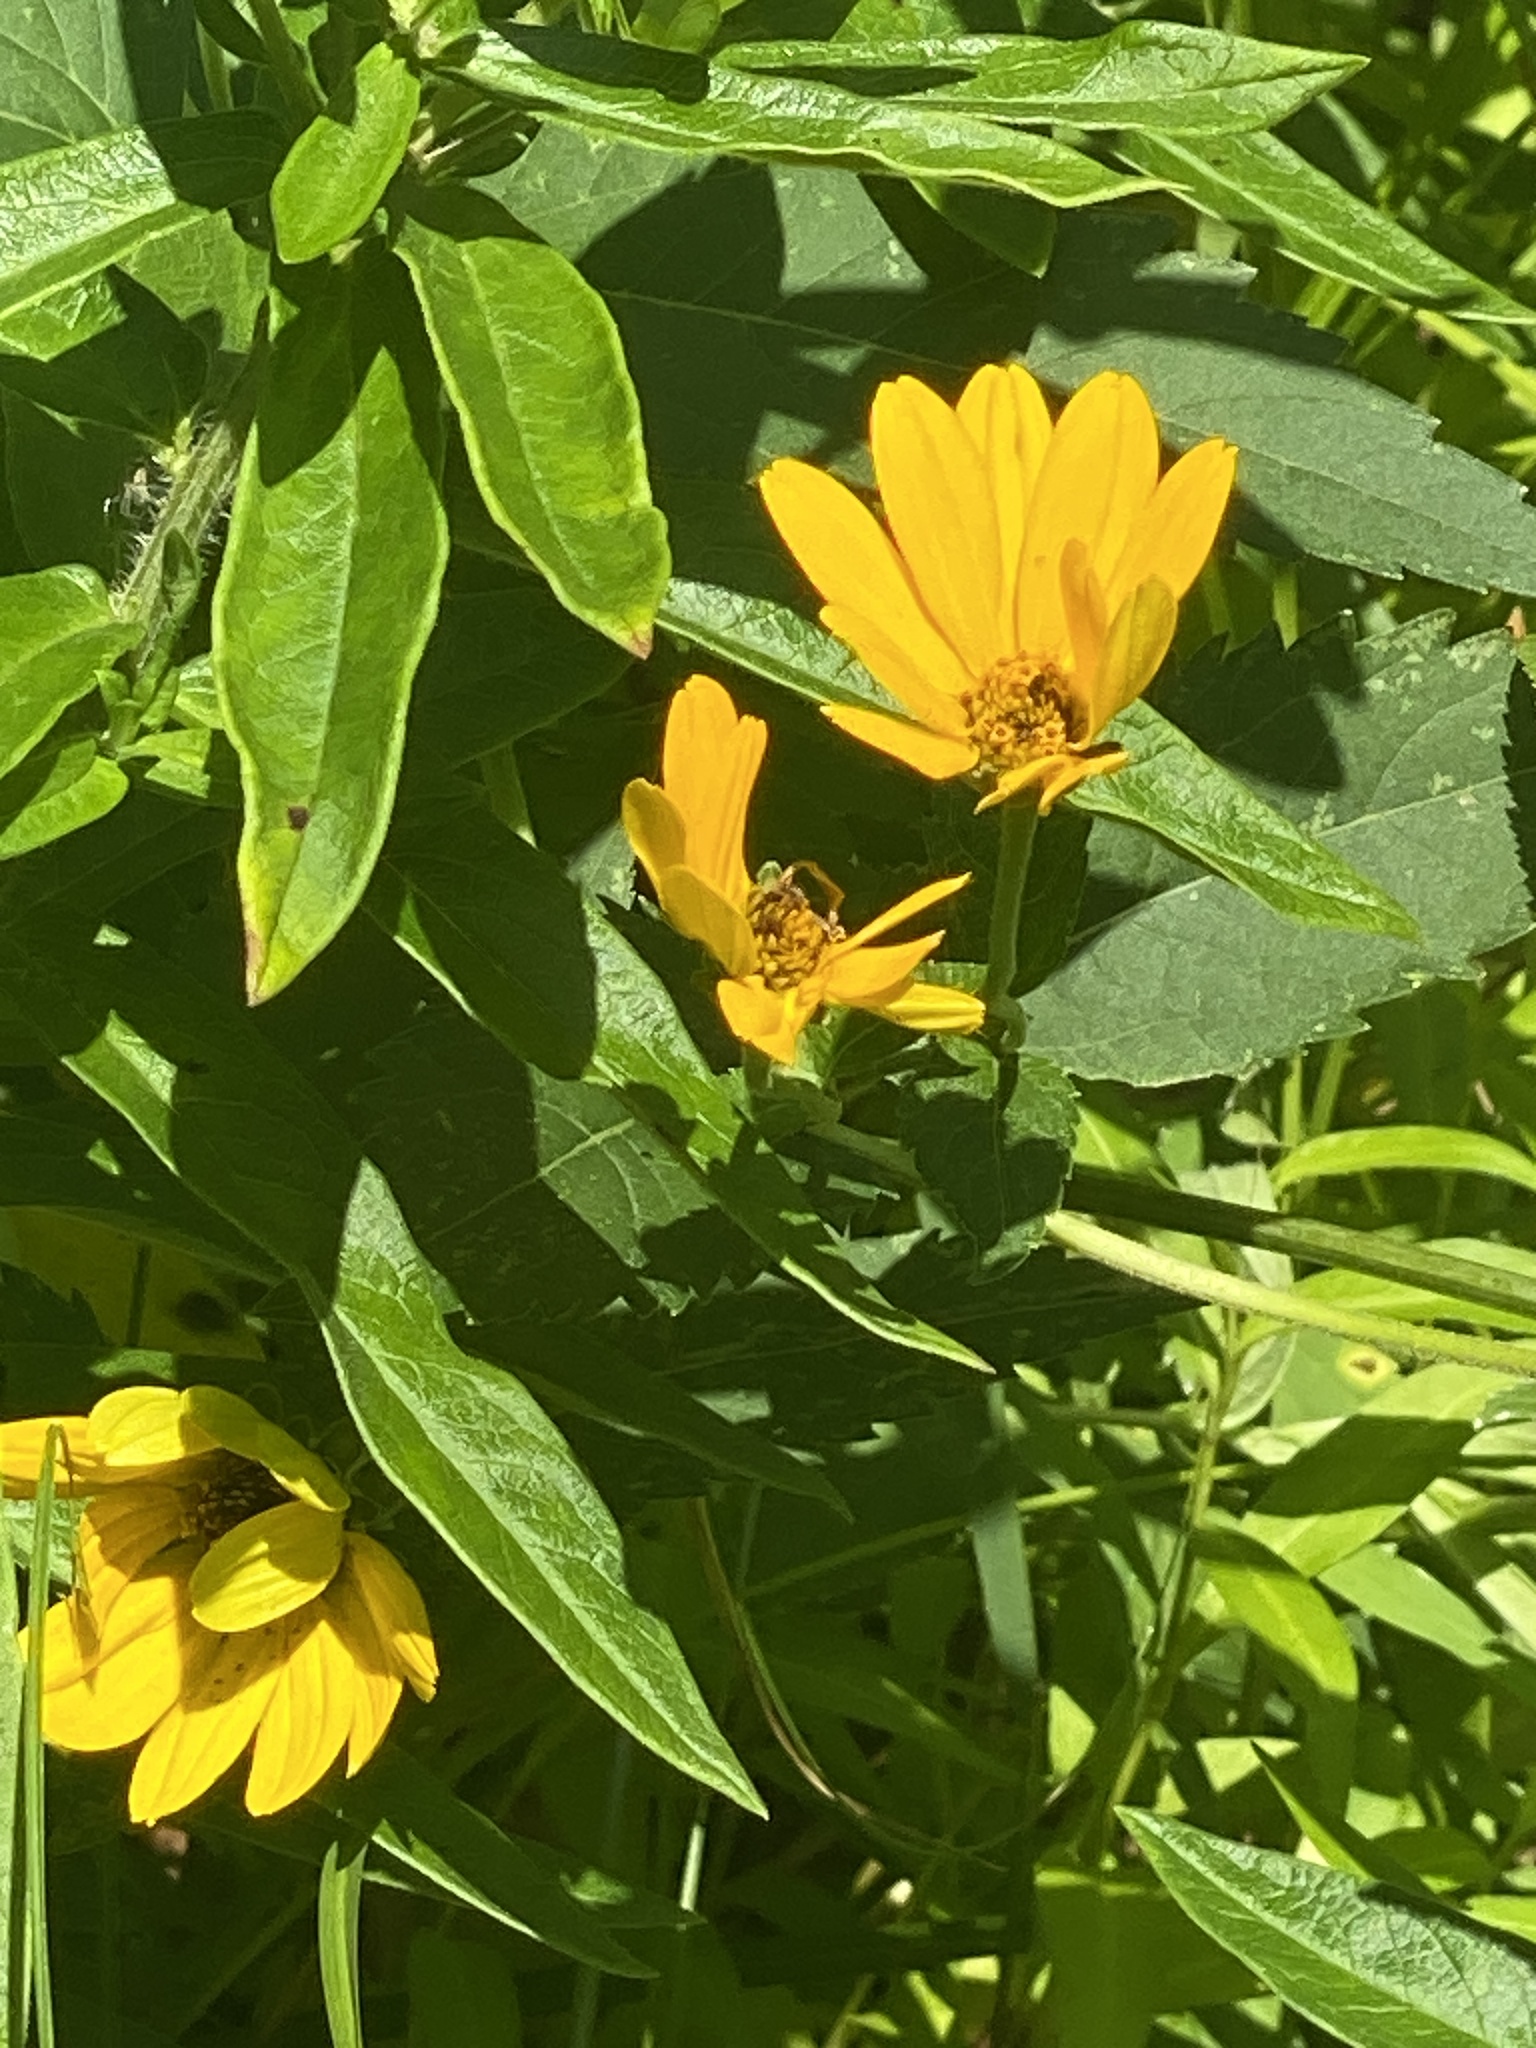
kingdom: Plantae
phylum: Tracheophyta
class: Magnoliopsida
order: Asterales
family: Asteraceae
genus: Heliopsis
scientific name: Heliopsis helianthoides
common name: False sunflower
